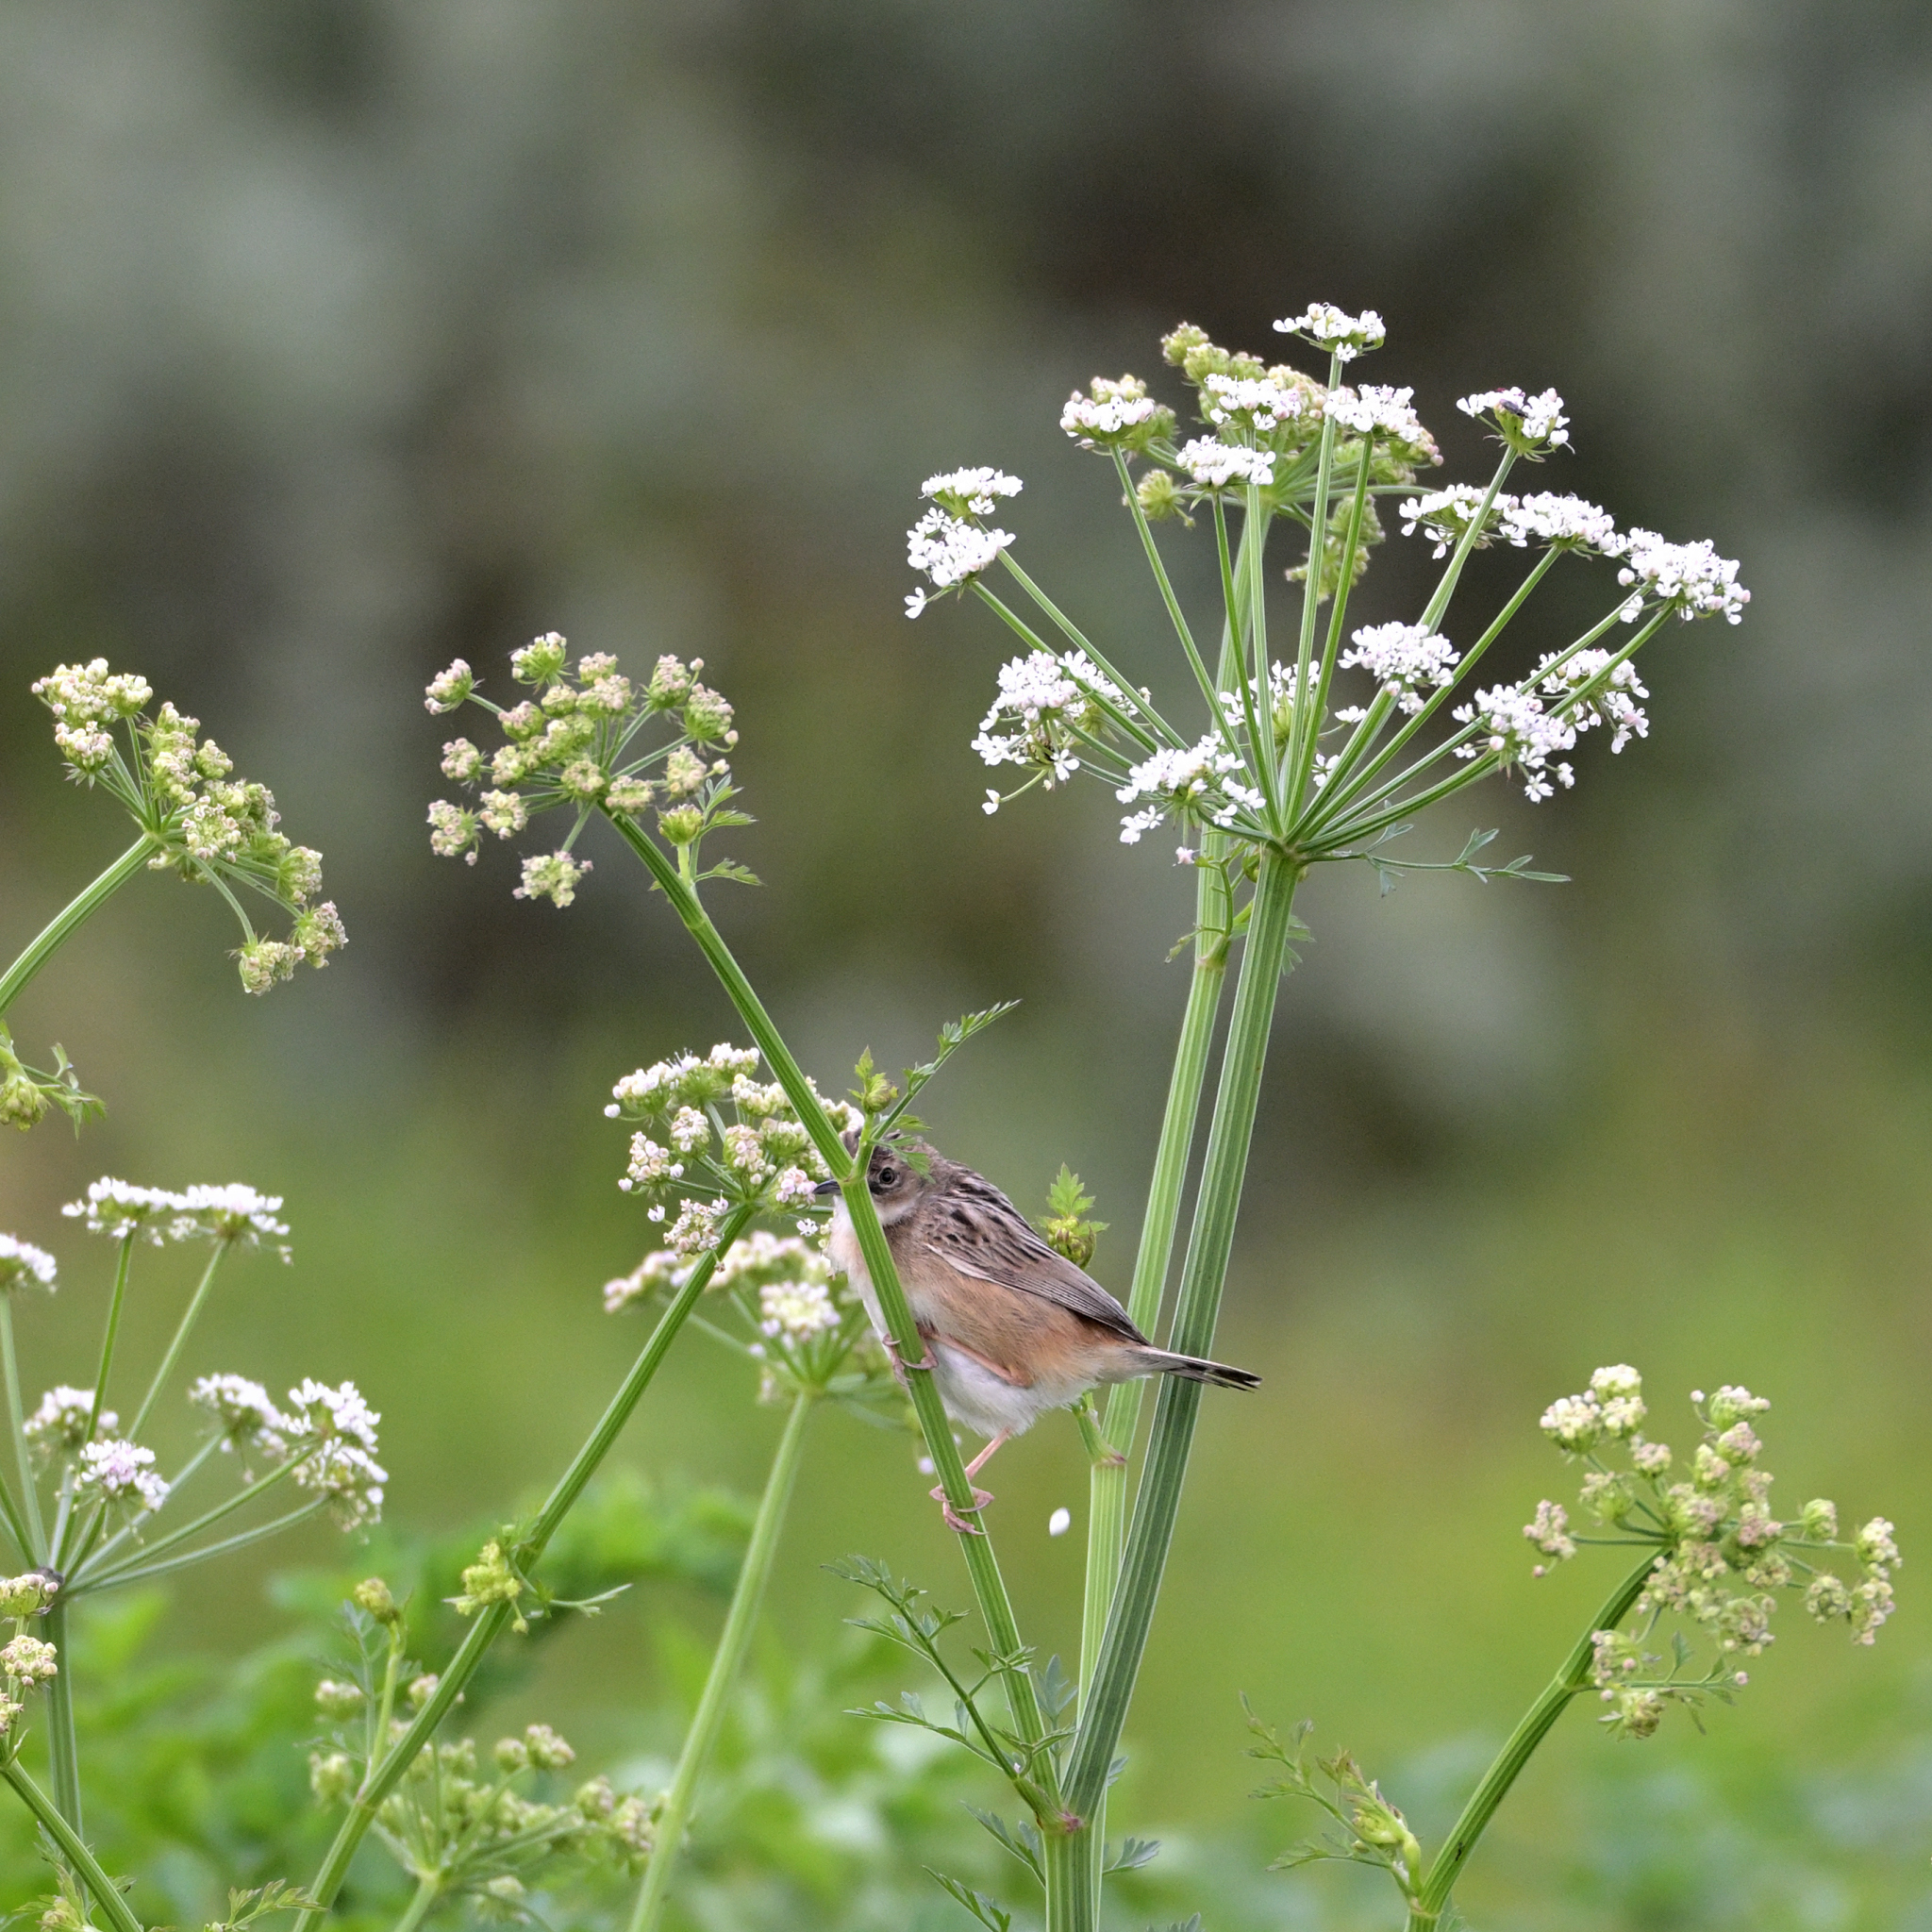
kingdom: Animalia
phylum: Chordata
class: Aves
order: Passeriformes
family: Cisticolidae
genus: Cisticola
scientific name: Cisticola juncidis
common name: Zitting cisticola
